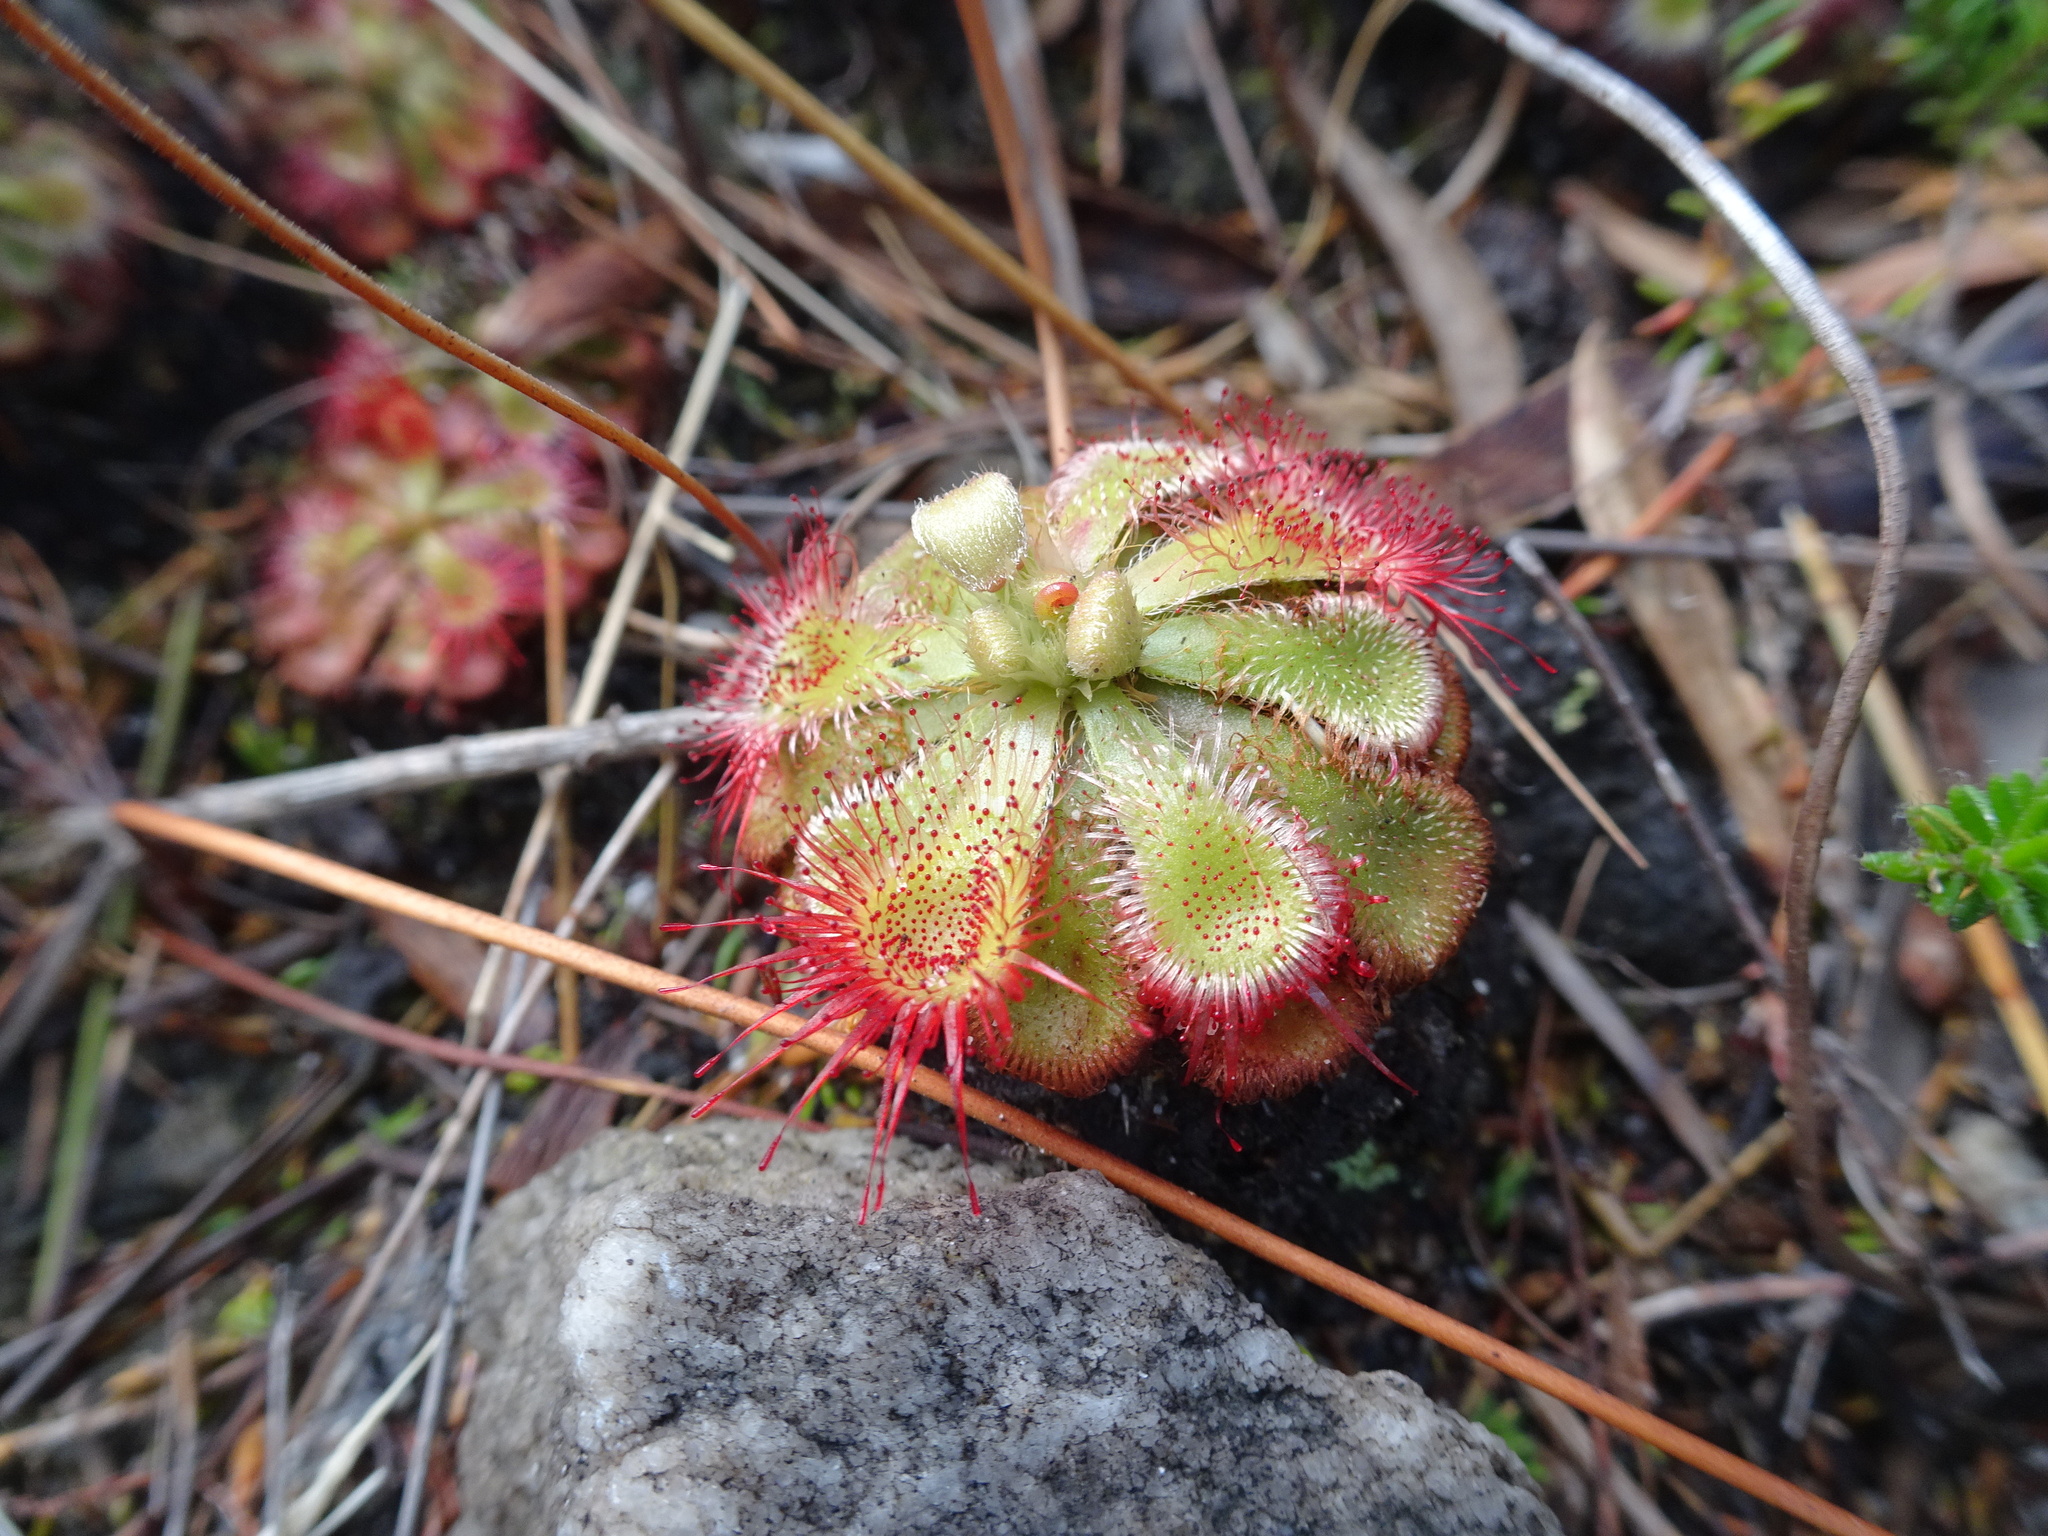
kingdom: Plantae
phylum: Tracheophyta
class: Magnoliopsida
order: Caryophyllales
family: Droseraceae
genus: Drosera
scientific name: Drosera xerophila
